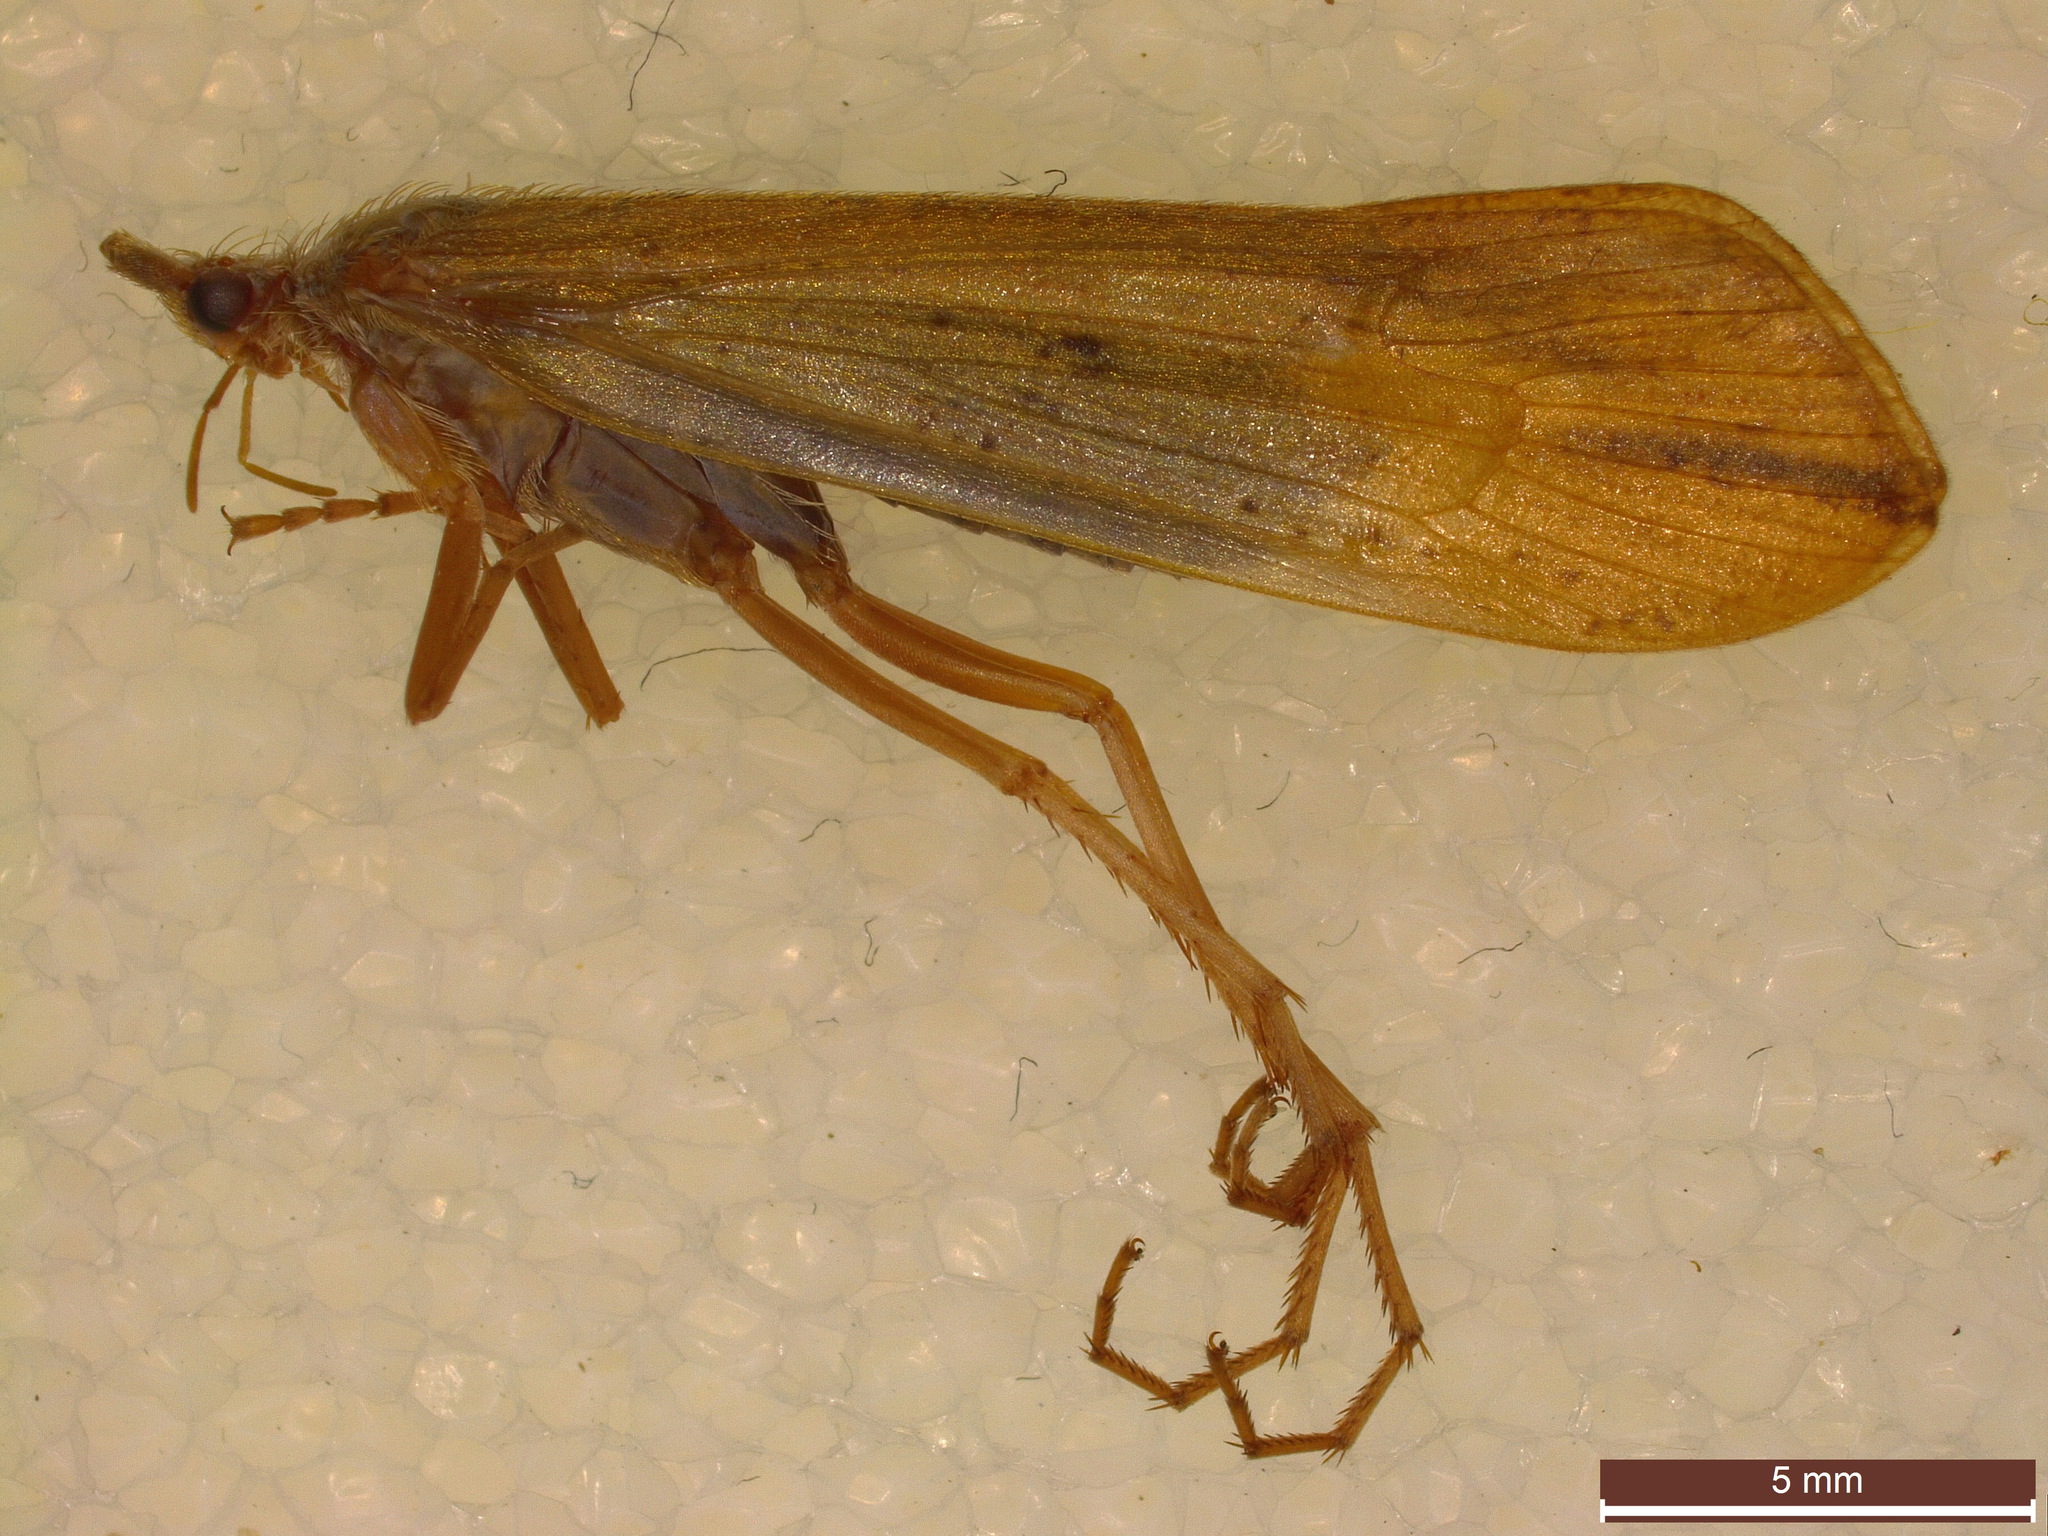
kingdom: Animalia
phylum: Arthropoda
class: Insecta
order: Trichoptera
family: Limnephilidae
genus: Grammotaulius
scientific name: Grammotaulius nigropunctatus
